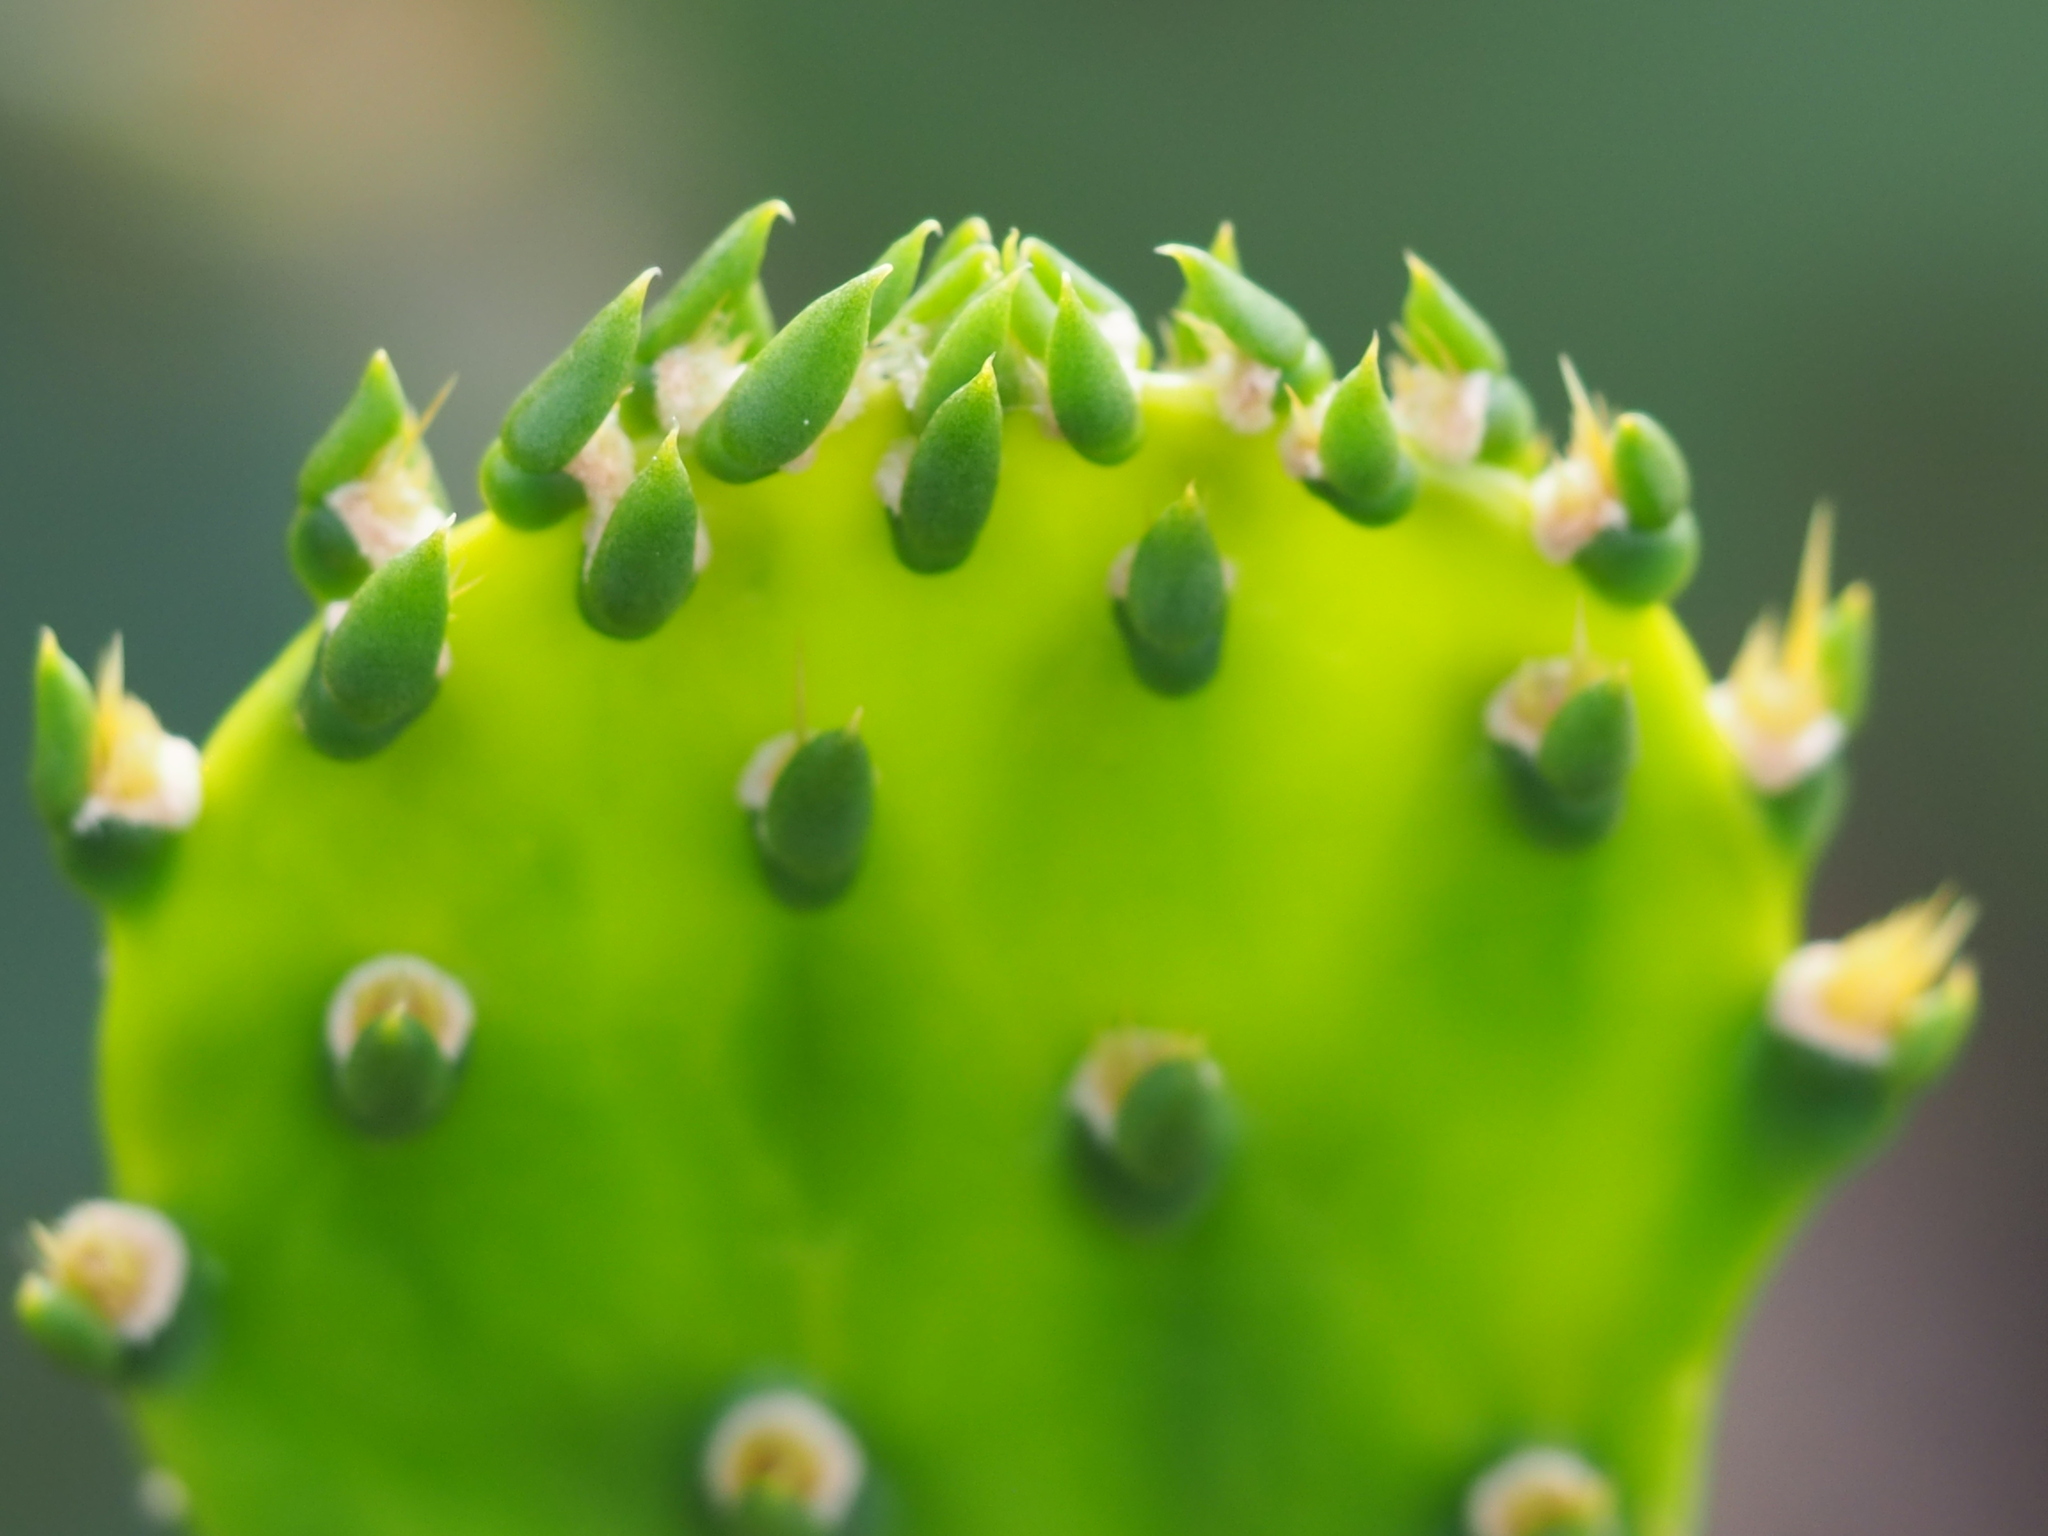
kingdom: Plantae
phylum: Tracheophyta
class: Magnoliopsida
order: Caryophyllales
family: Cactaceae
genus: Opuntia
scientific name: Opuntia dillenii
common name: Sour prickle
